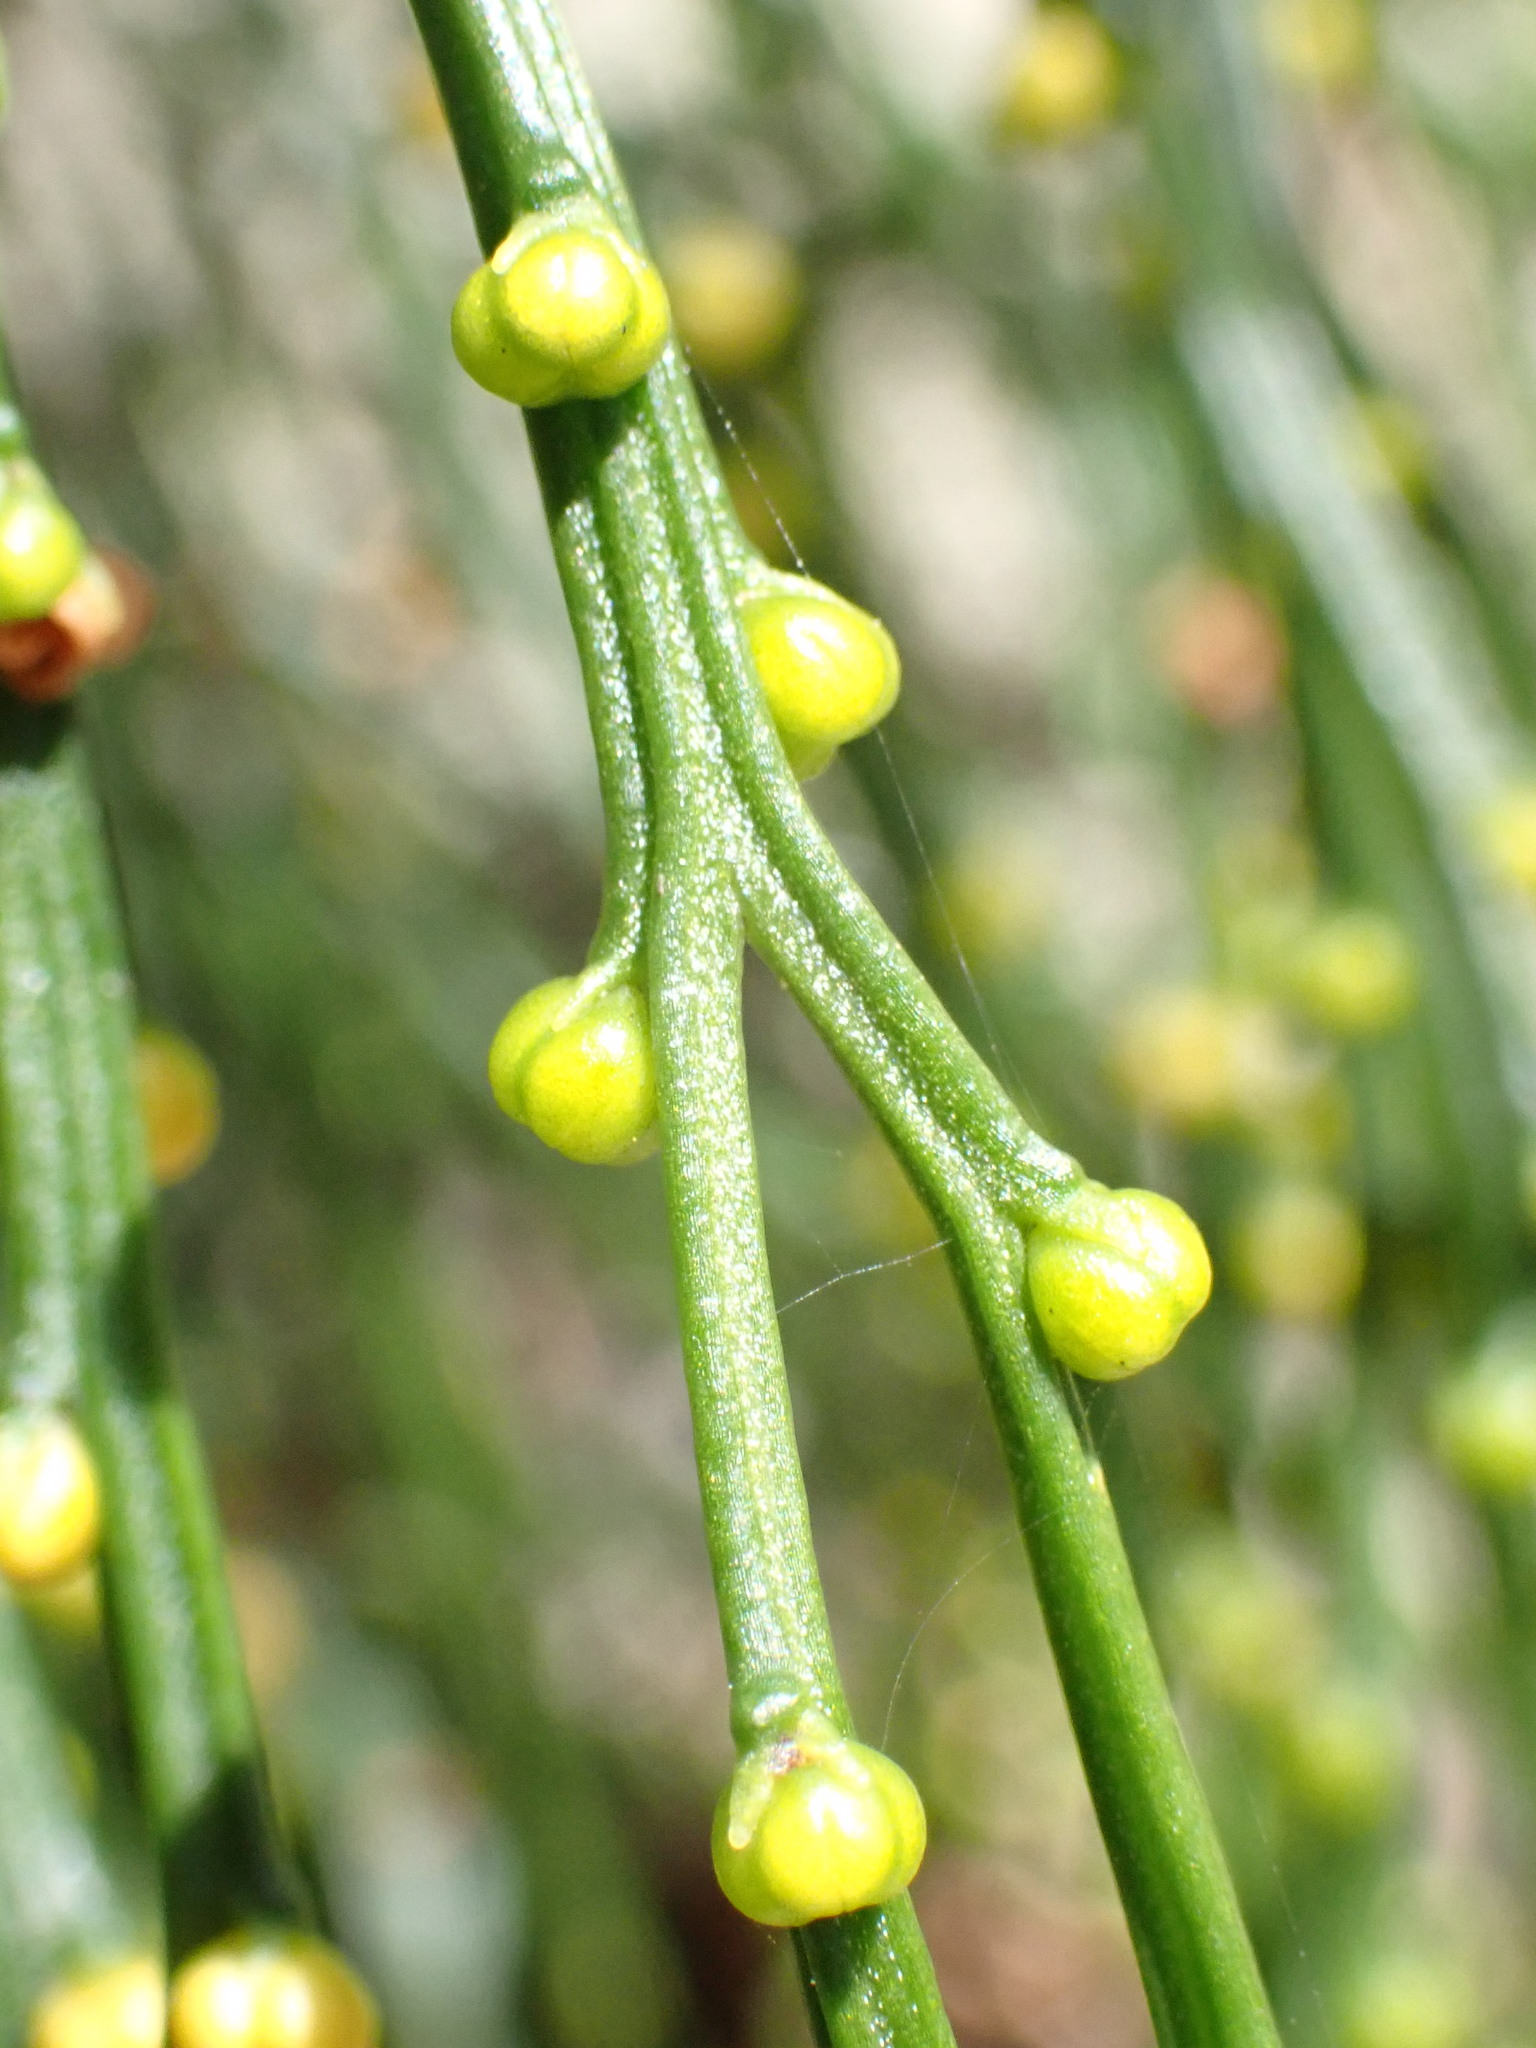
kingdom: Plantae
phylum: Tracheophyta
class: Polypodiopsida
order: Psilotales
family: Psilotaceae
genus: Psilotum
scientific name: Psilotum nudum
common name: Skeleton fork fern
